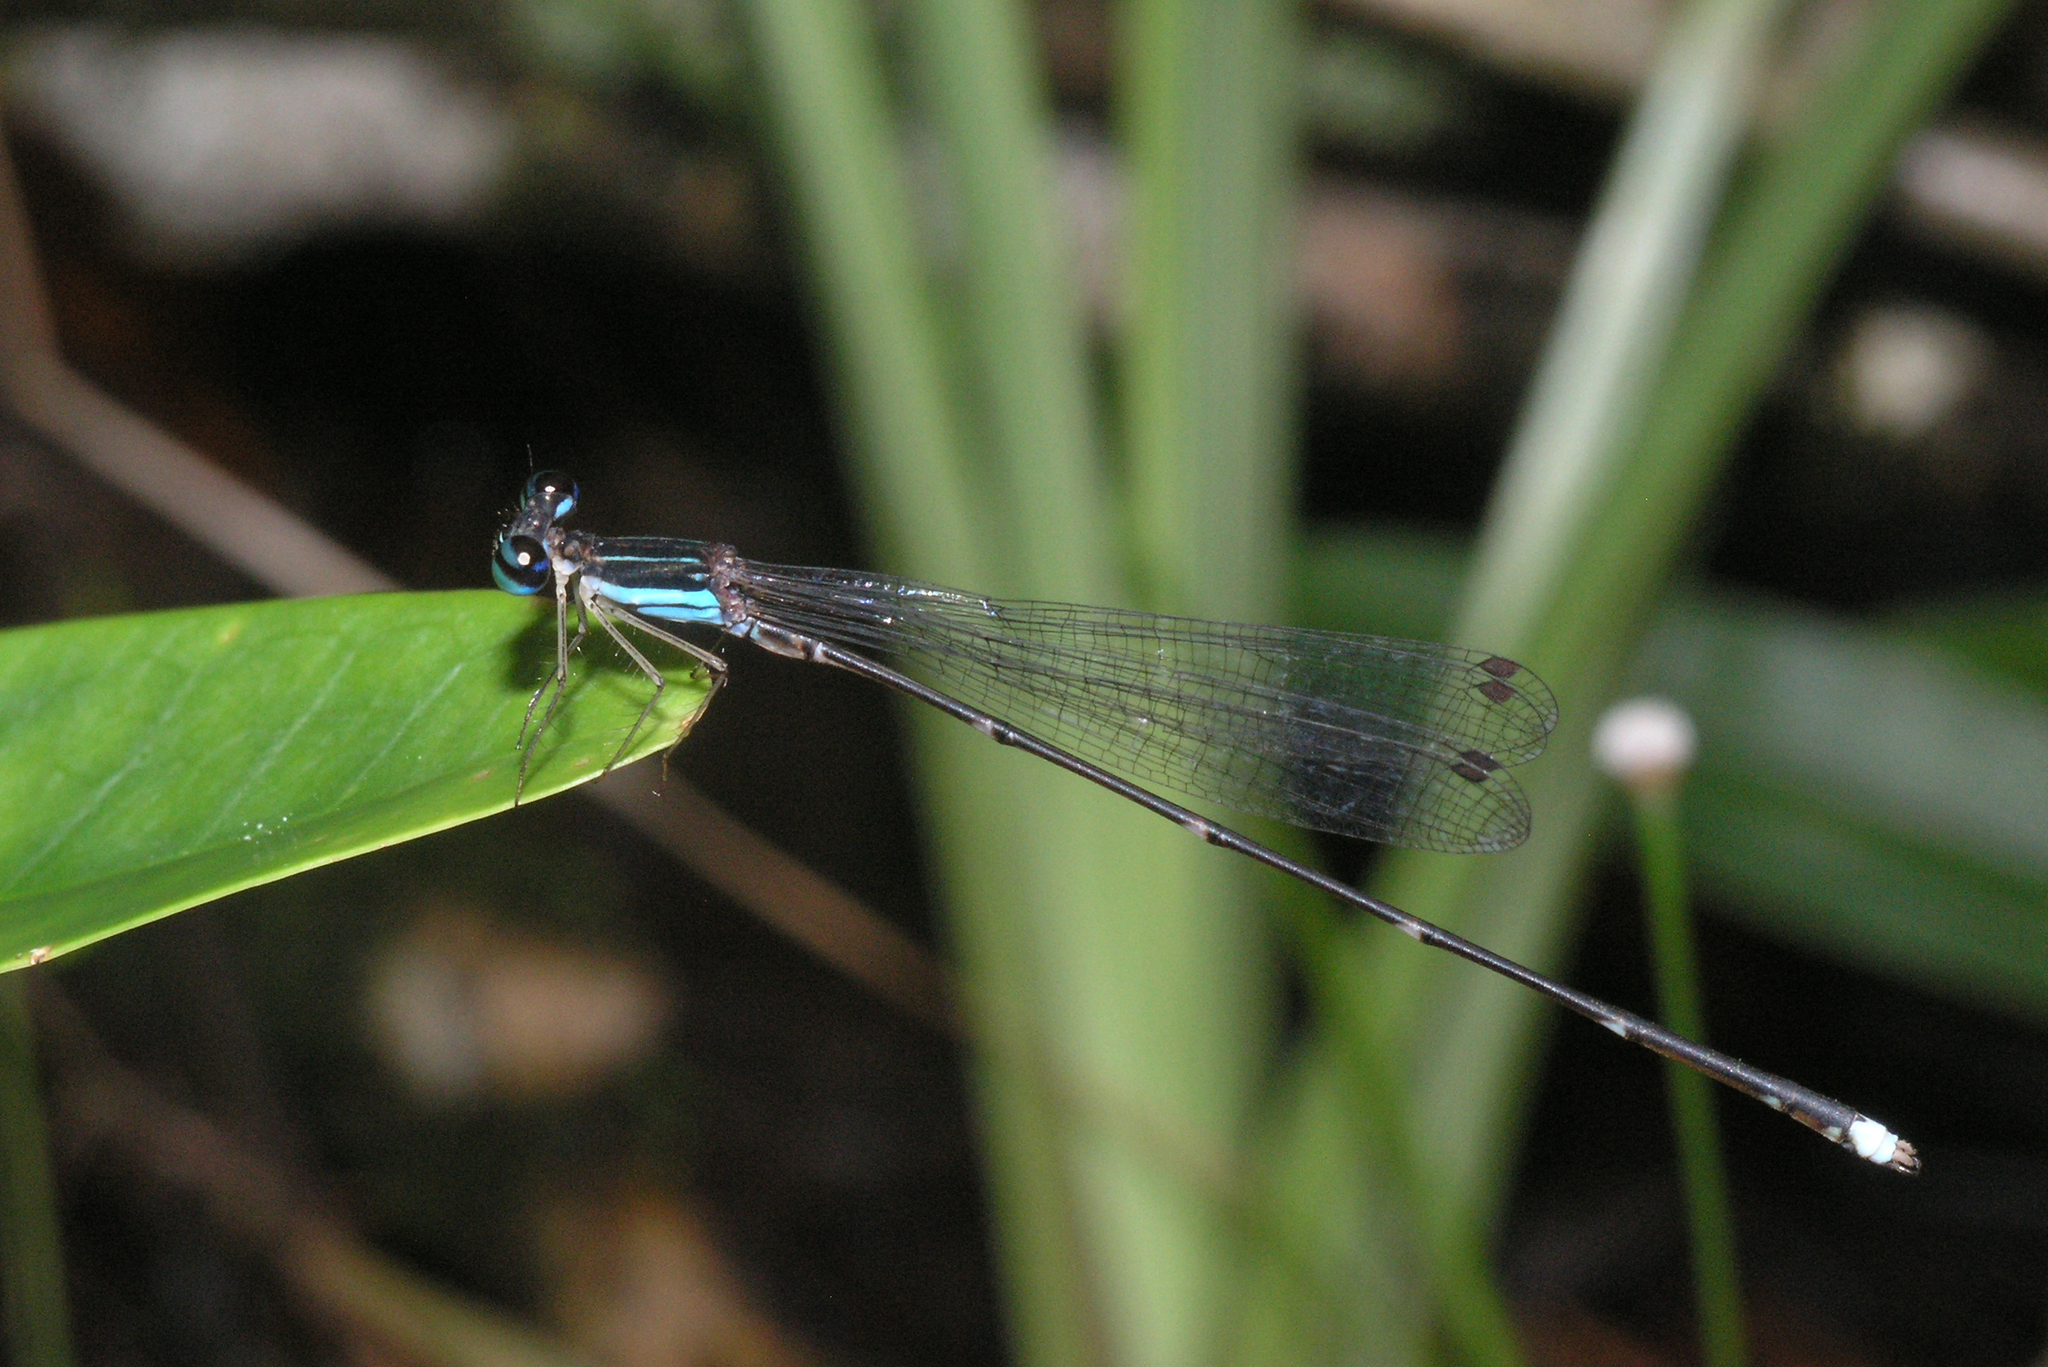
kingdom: Animalia
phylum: Arthropoda
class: Insecta
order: Odonata
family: Platycnemididae
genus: Coeliccia
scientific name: Coeliccia kazukoae
